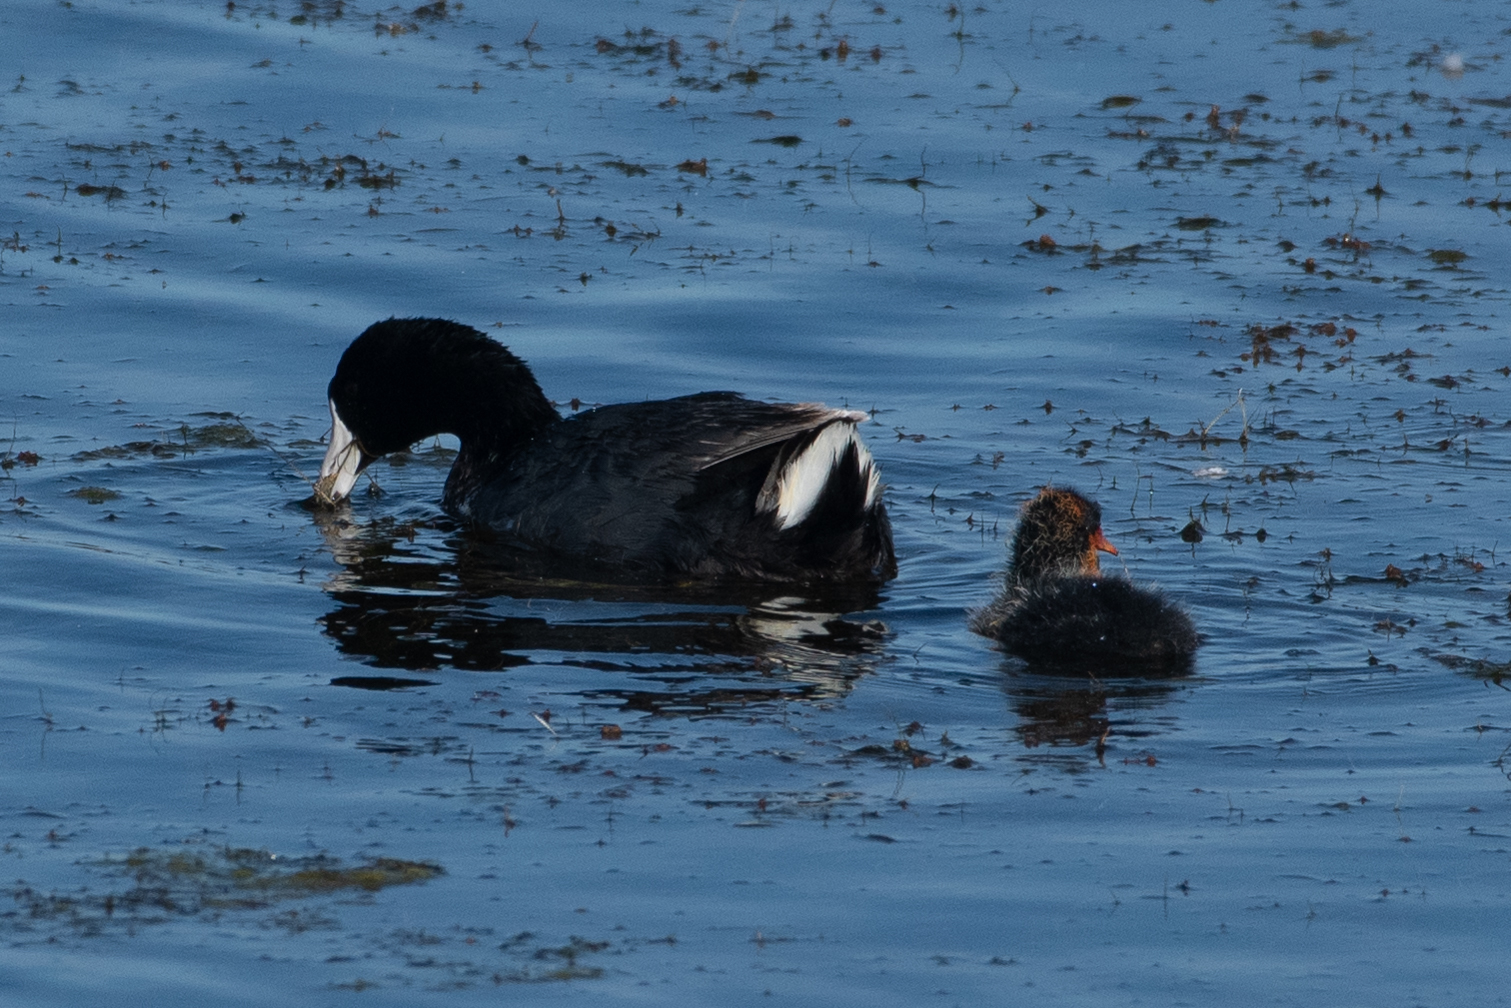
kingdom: Animalia
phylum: Chordata
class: Aves
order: Gruiformes
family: Rallidae
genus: Fulica
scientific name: Fulica americana
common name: American coot
